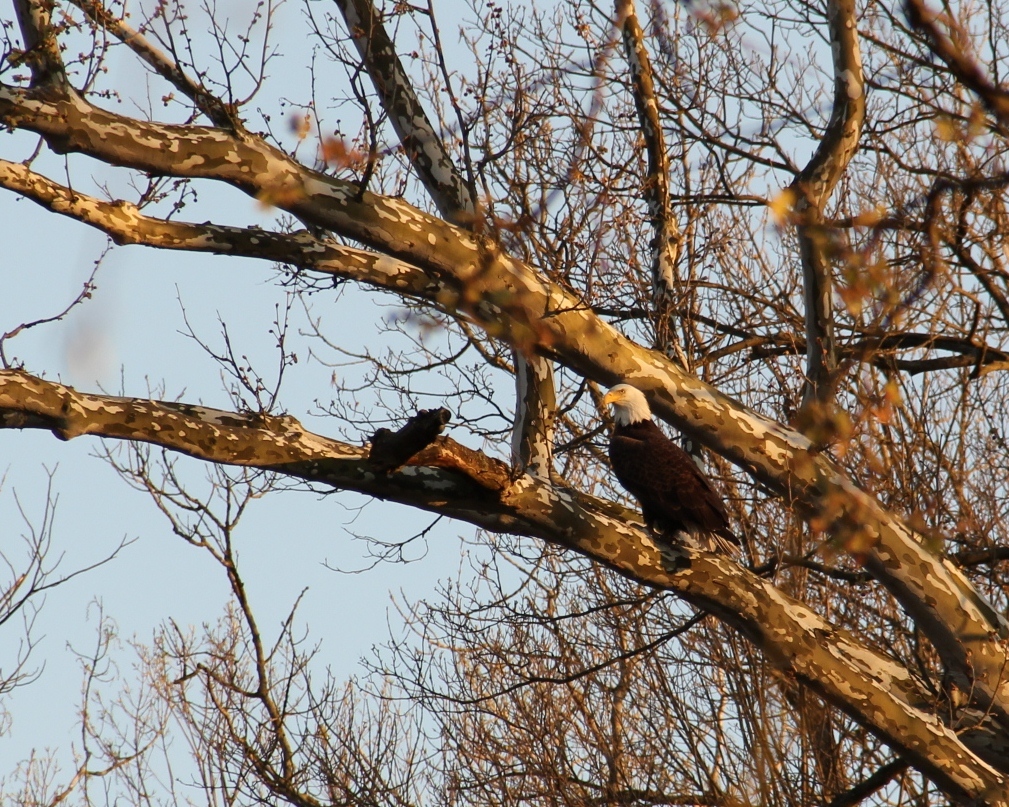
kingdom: Animalia
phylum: Chordata
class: Aves
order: Accipitriformes
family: Accipitridae
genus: Haliaeetus
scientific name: Haliaeetus leucocephalus
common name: Bald eagle
